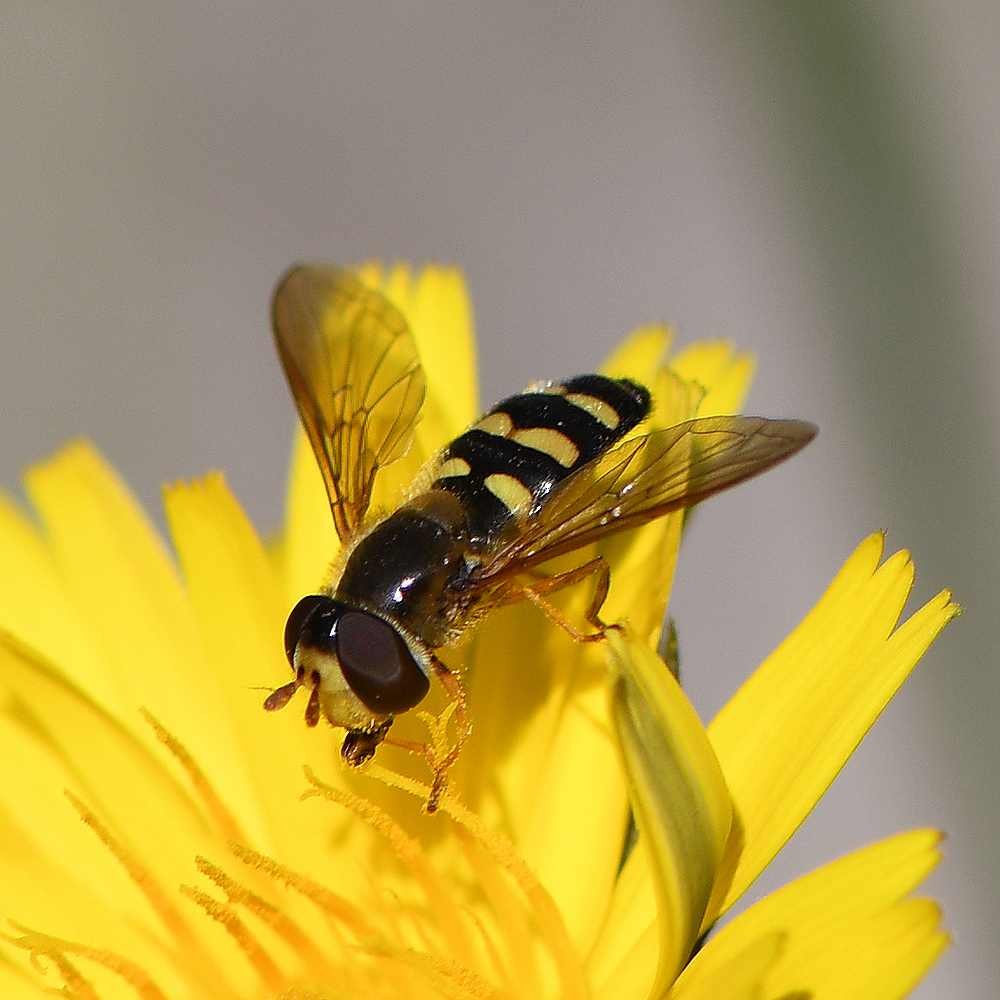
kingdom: Animalia
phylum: Arthropoda
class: Insecta
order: Diptera
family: Syrphidae
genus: Eupeodes
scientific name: Eupeodes fumipennis
